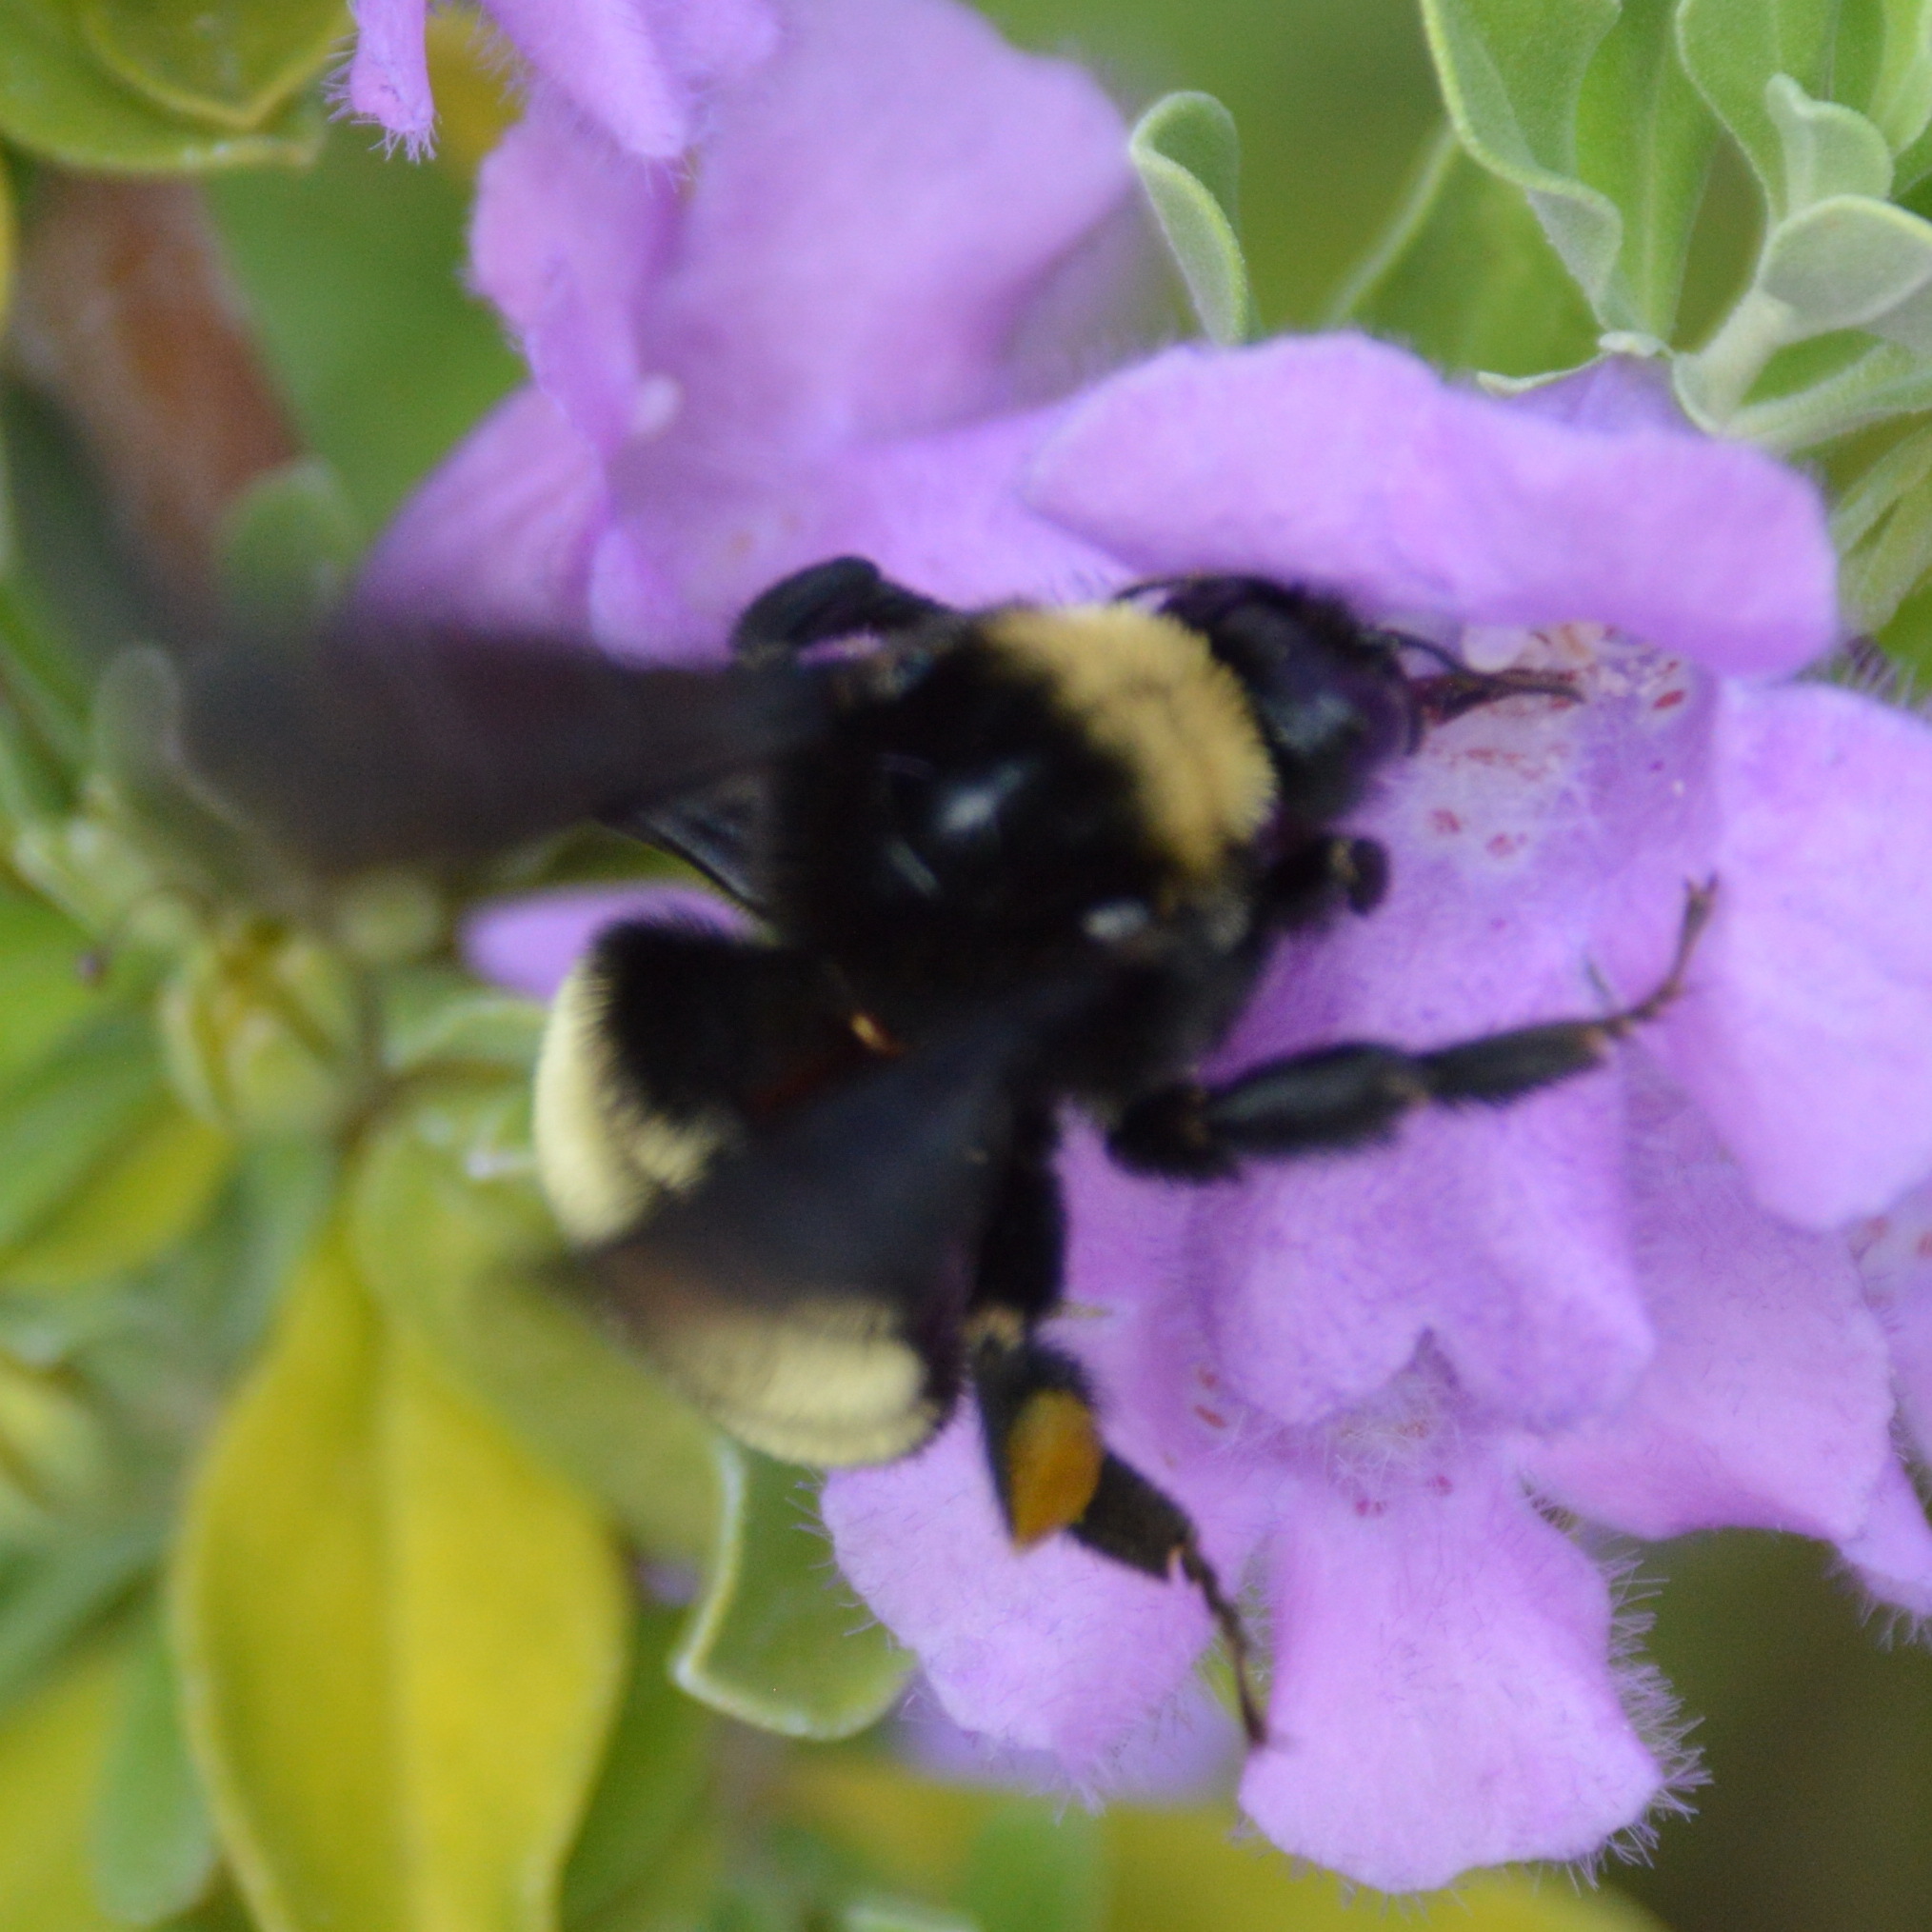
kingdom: Animalia
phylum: Arthropoda
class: Insecta
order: Hymenoptera
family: Apidae
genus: Bombus
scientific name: Bombus pensylvanicus
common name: Bumble bee
